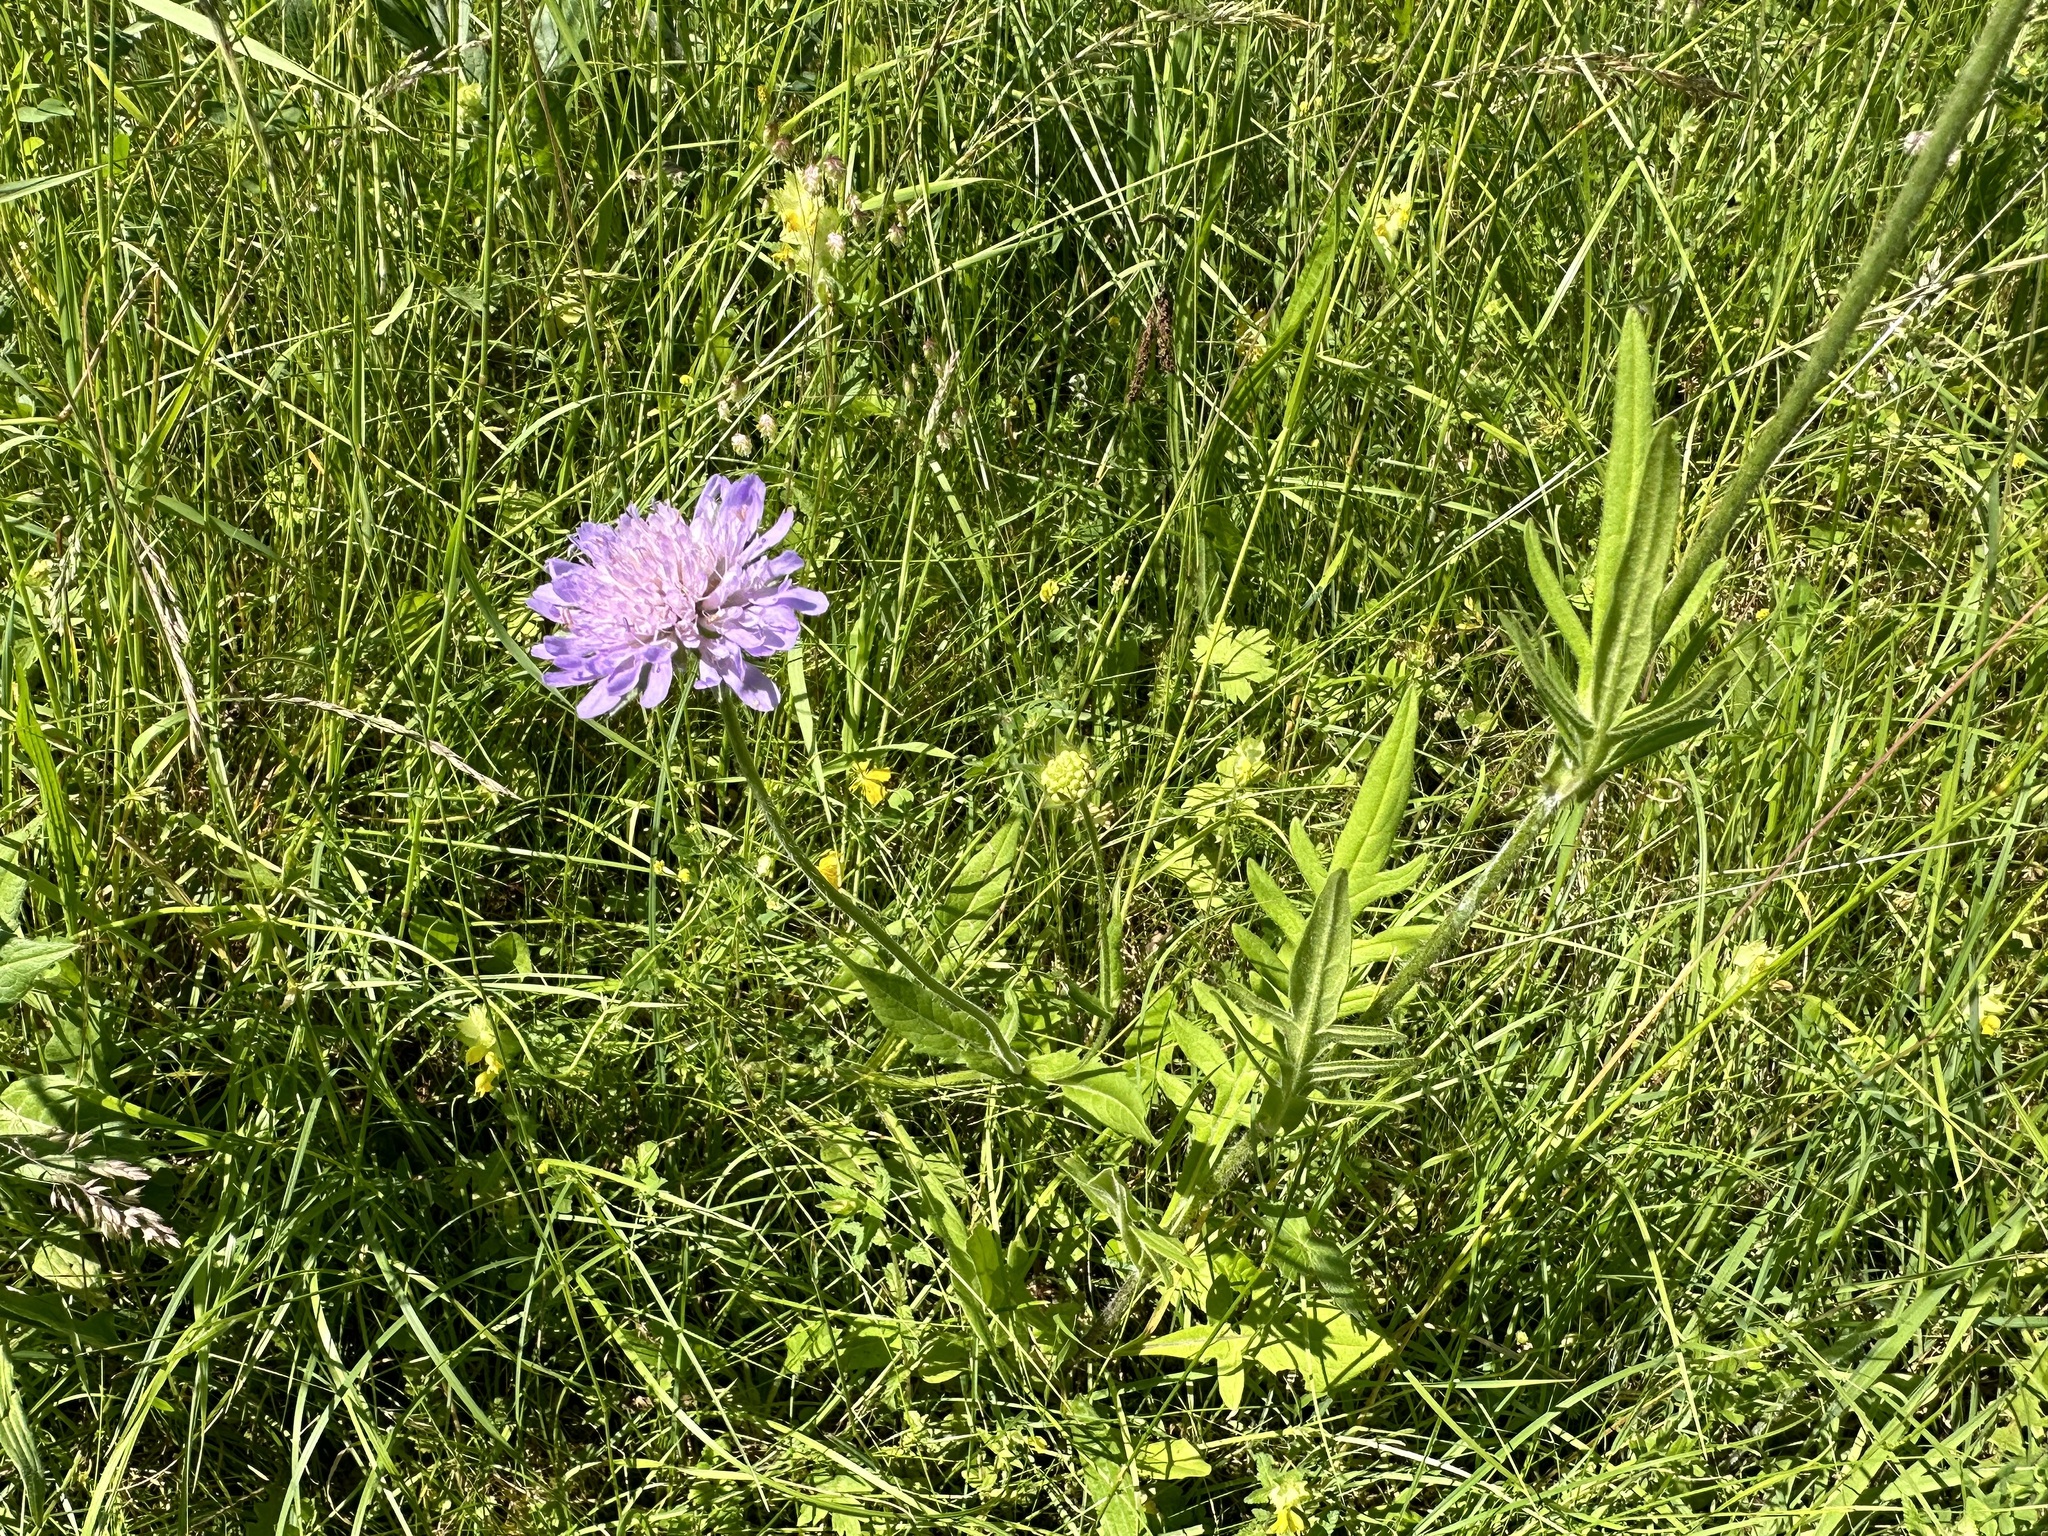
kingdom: Plantae
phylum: Tracheophyta
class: Magnoliopsida
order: Dipsacales
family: Caprifoliaceae
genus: Knautia
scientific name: Knautia arvensis
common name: Field scabiosa
